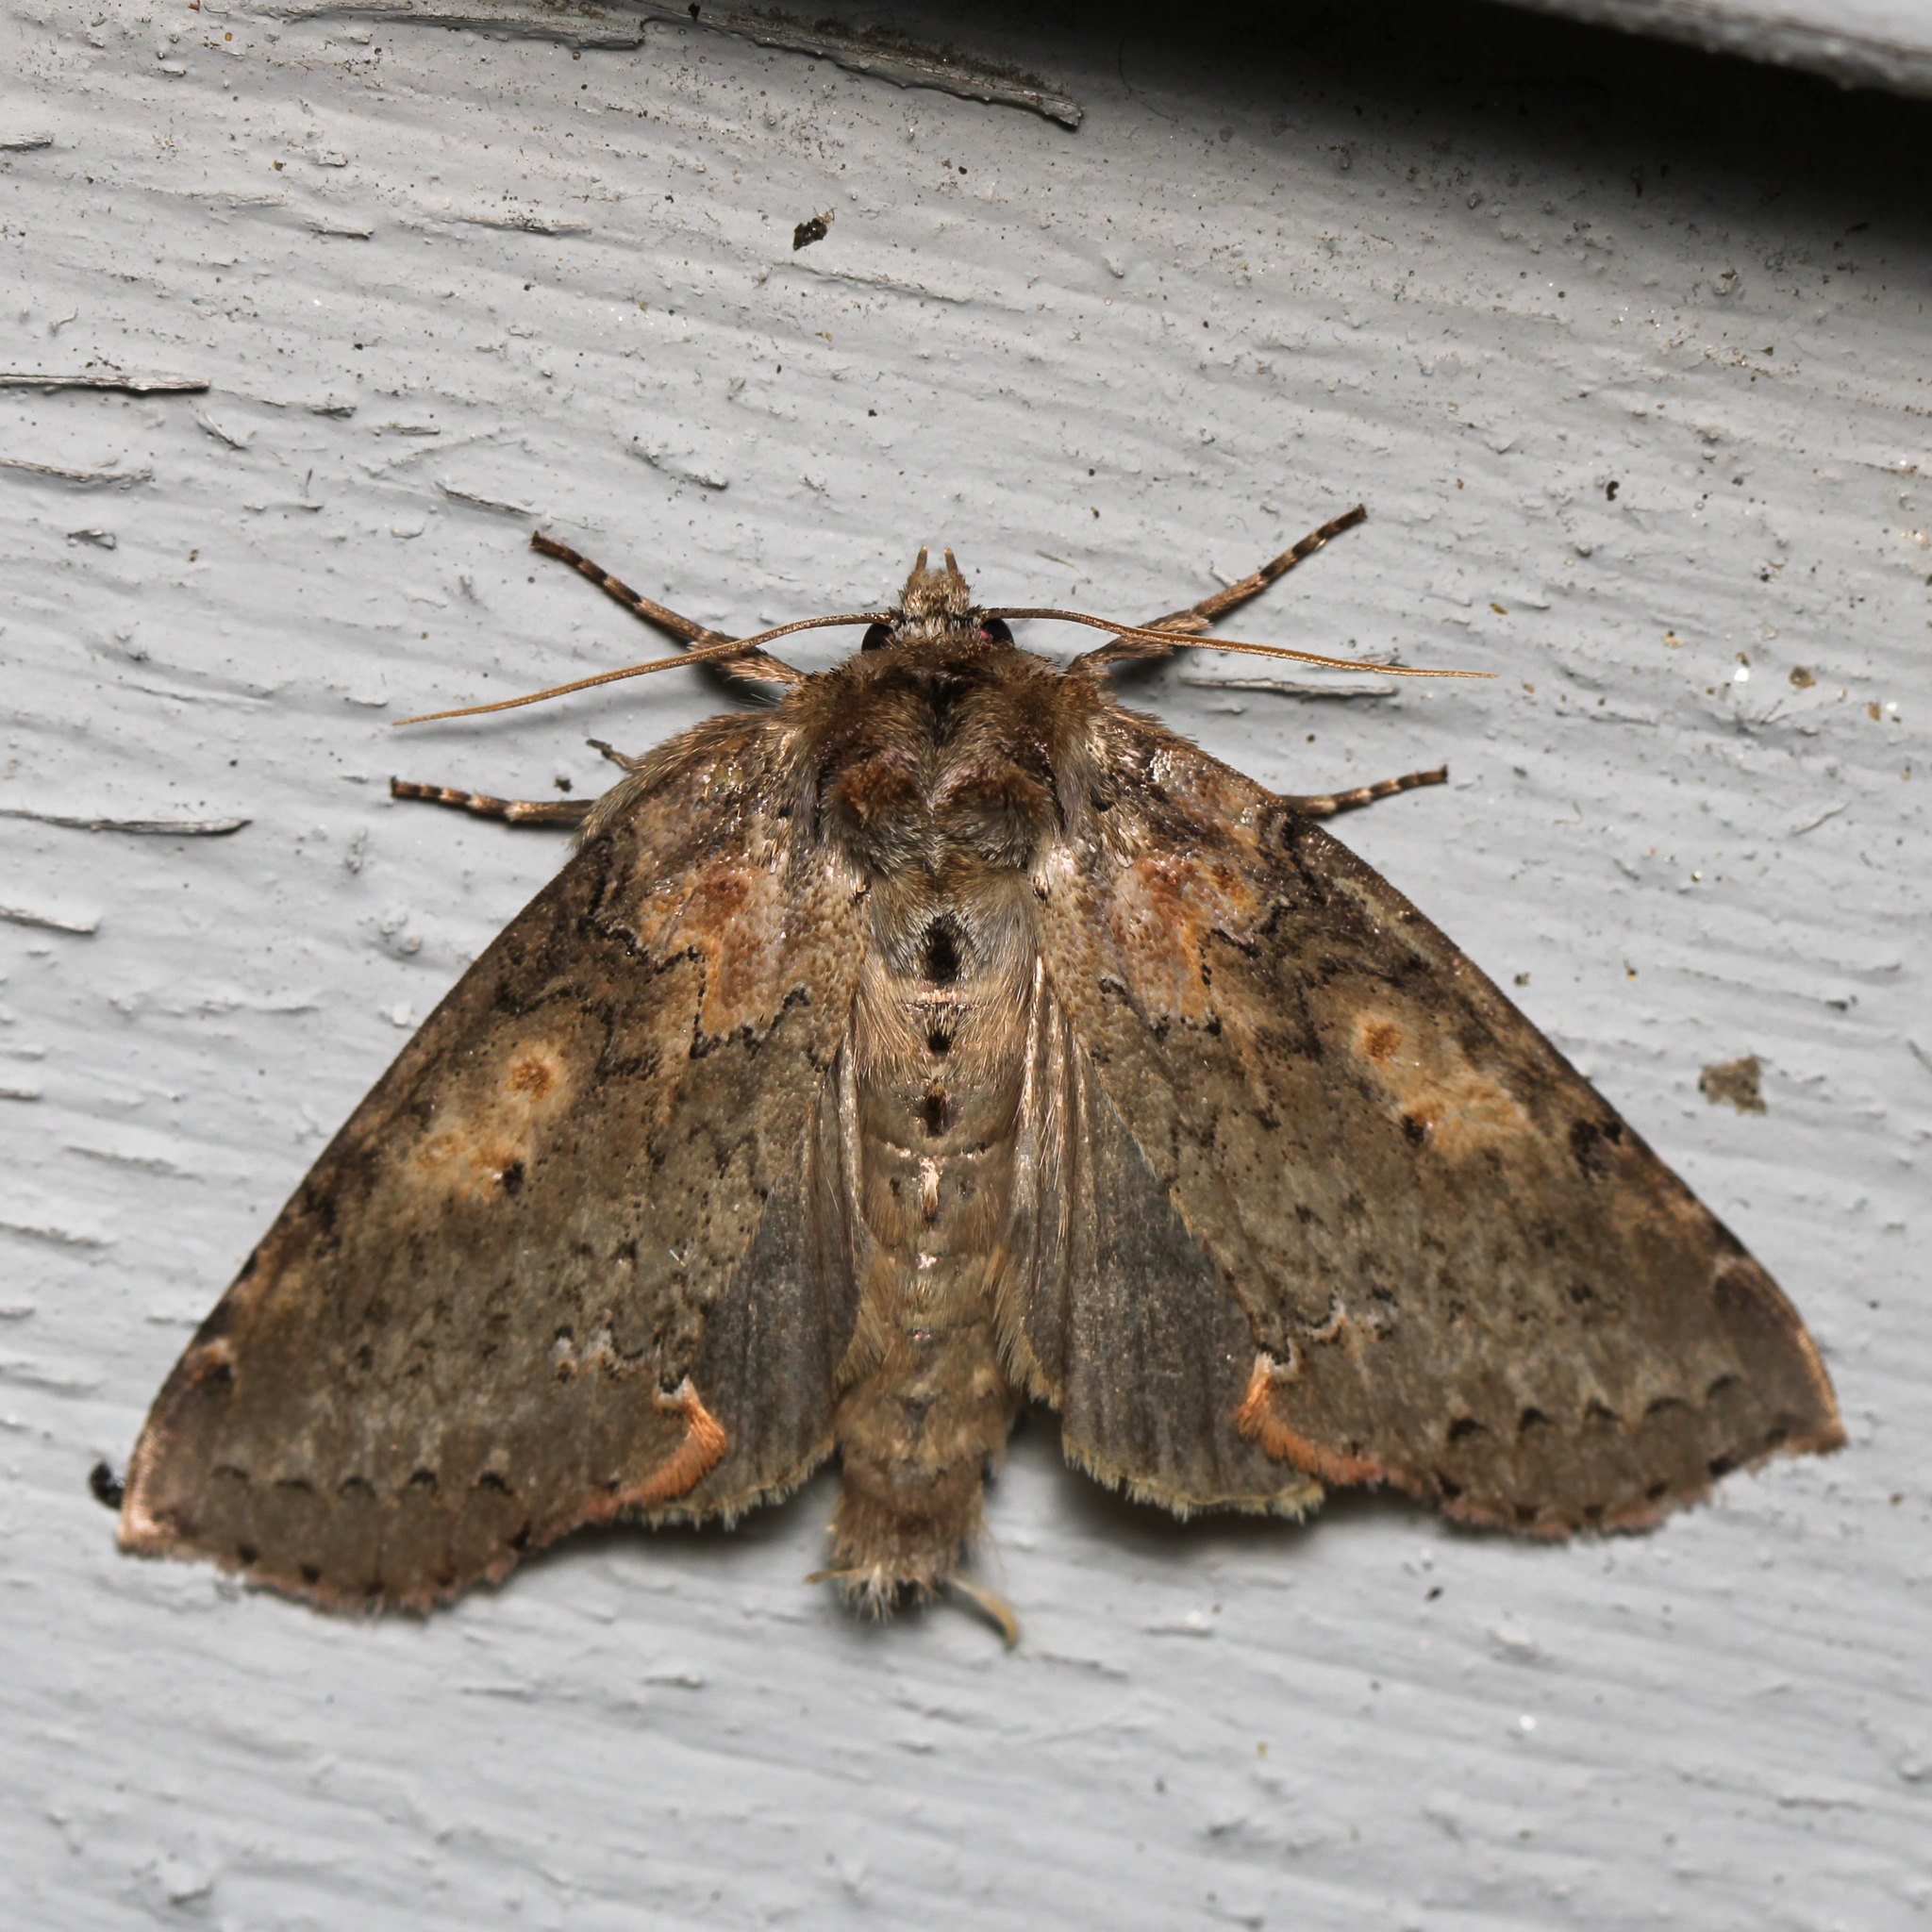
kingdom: Animalia
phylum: Arthropoda
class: Insecta
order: Lepidoptera
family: Drepanidae
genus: Pseudothyatira
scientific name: Pseudothyatira cymatophoroides
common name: Tufted thyatirid moth
